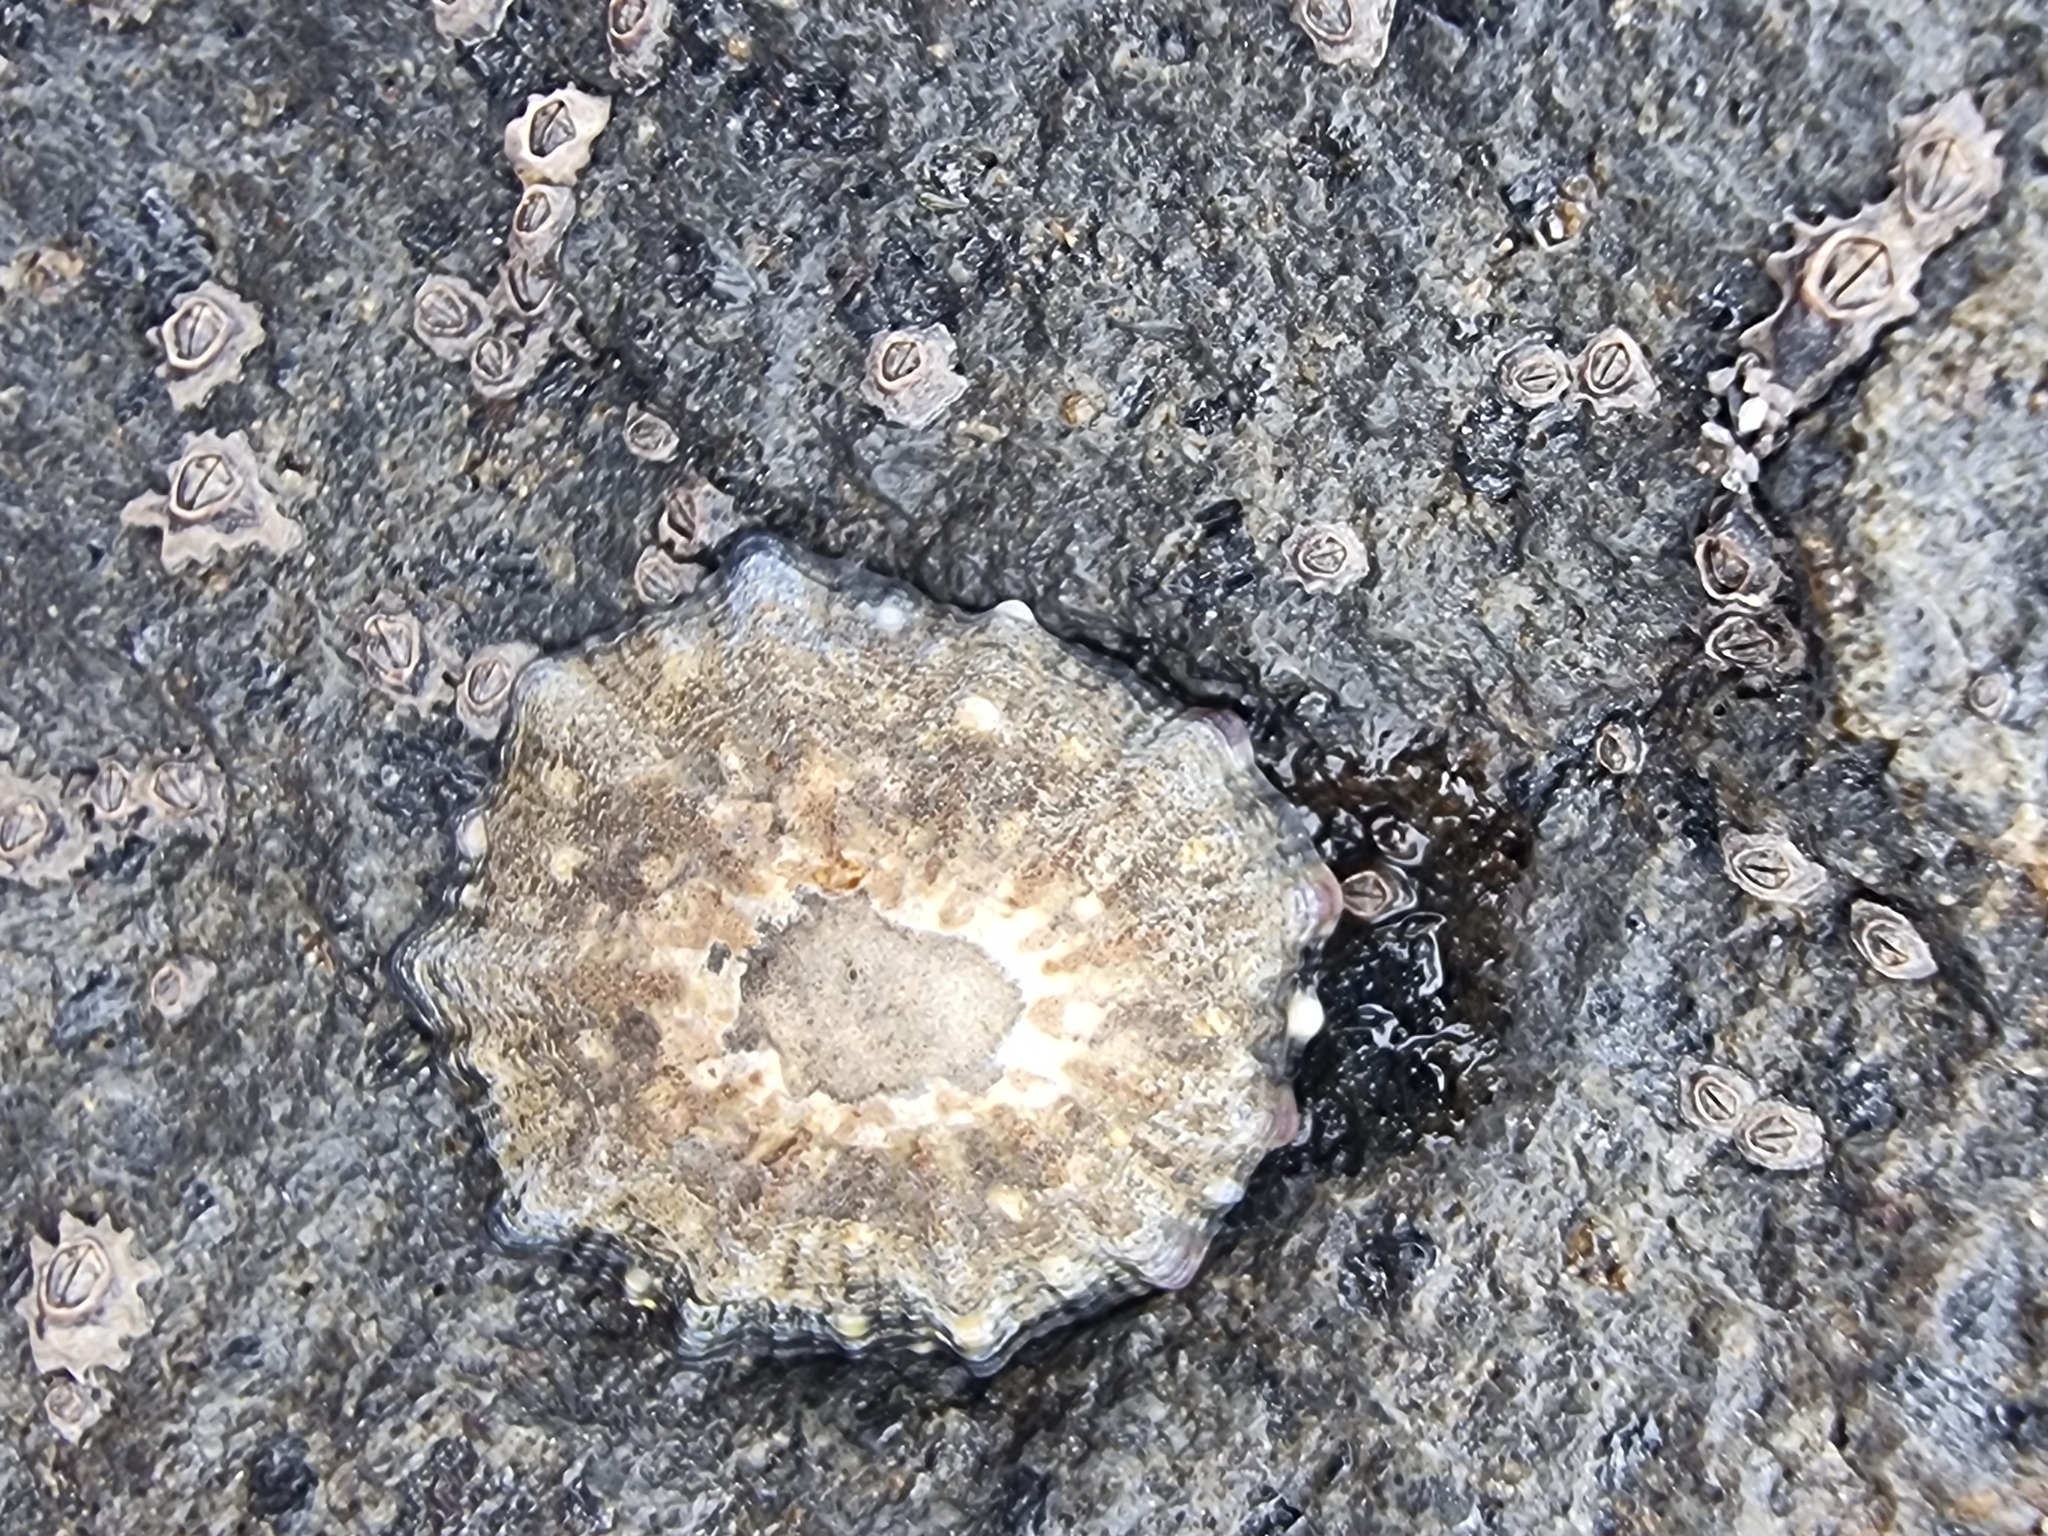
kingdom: Animalia
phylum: Mollusca
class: Gastropoda
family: Nacellidae
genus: Cellana
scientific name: Cellana ornata
